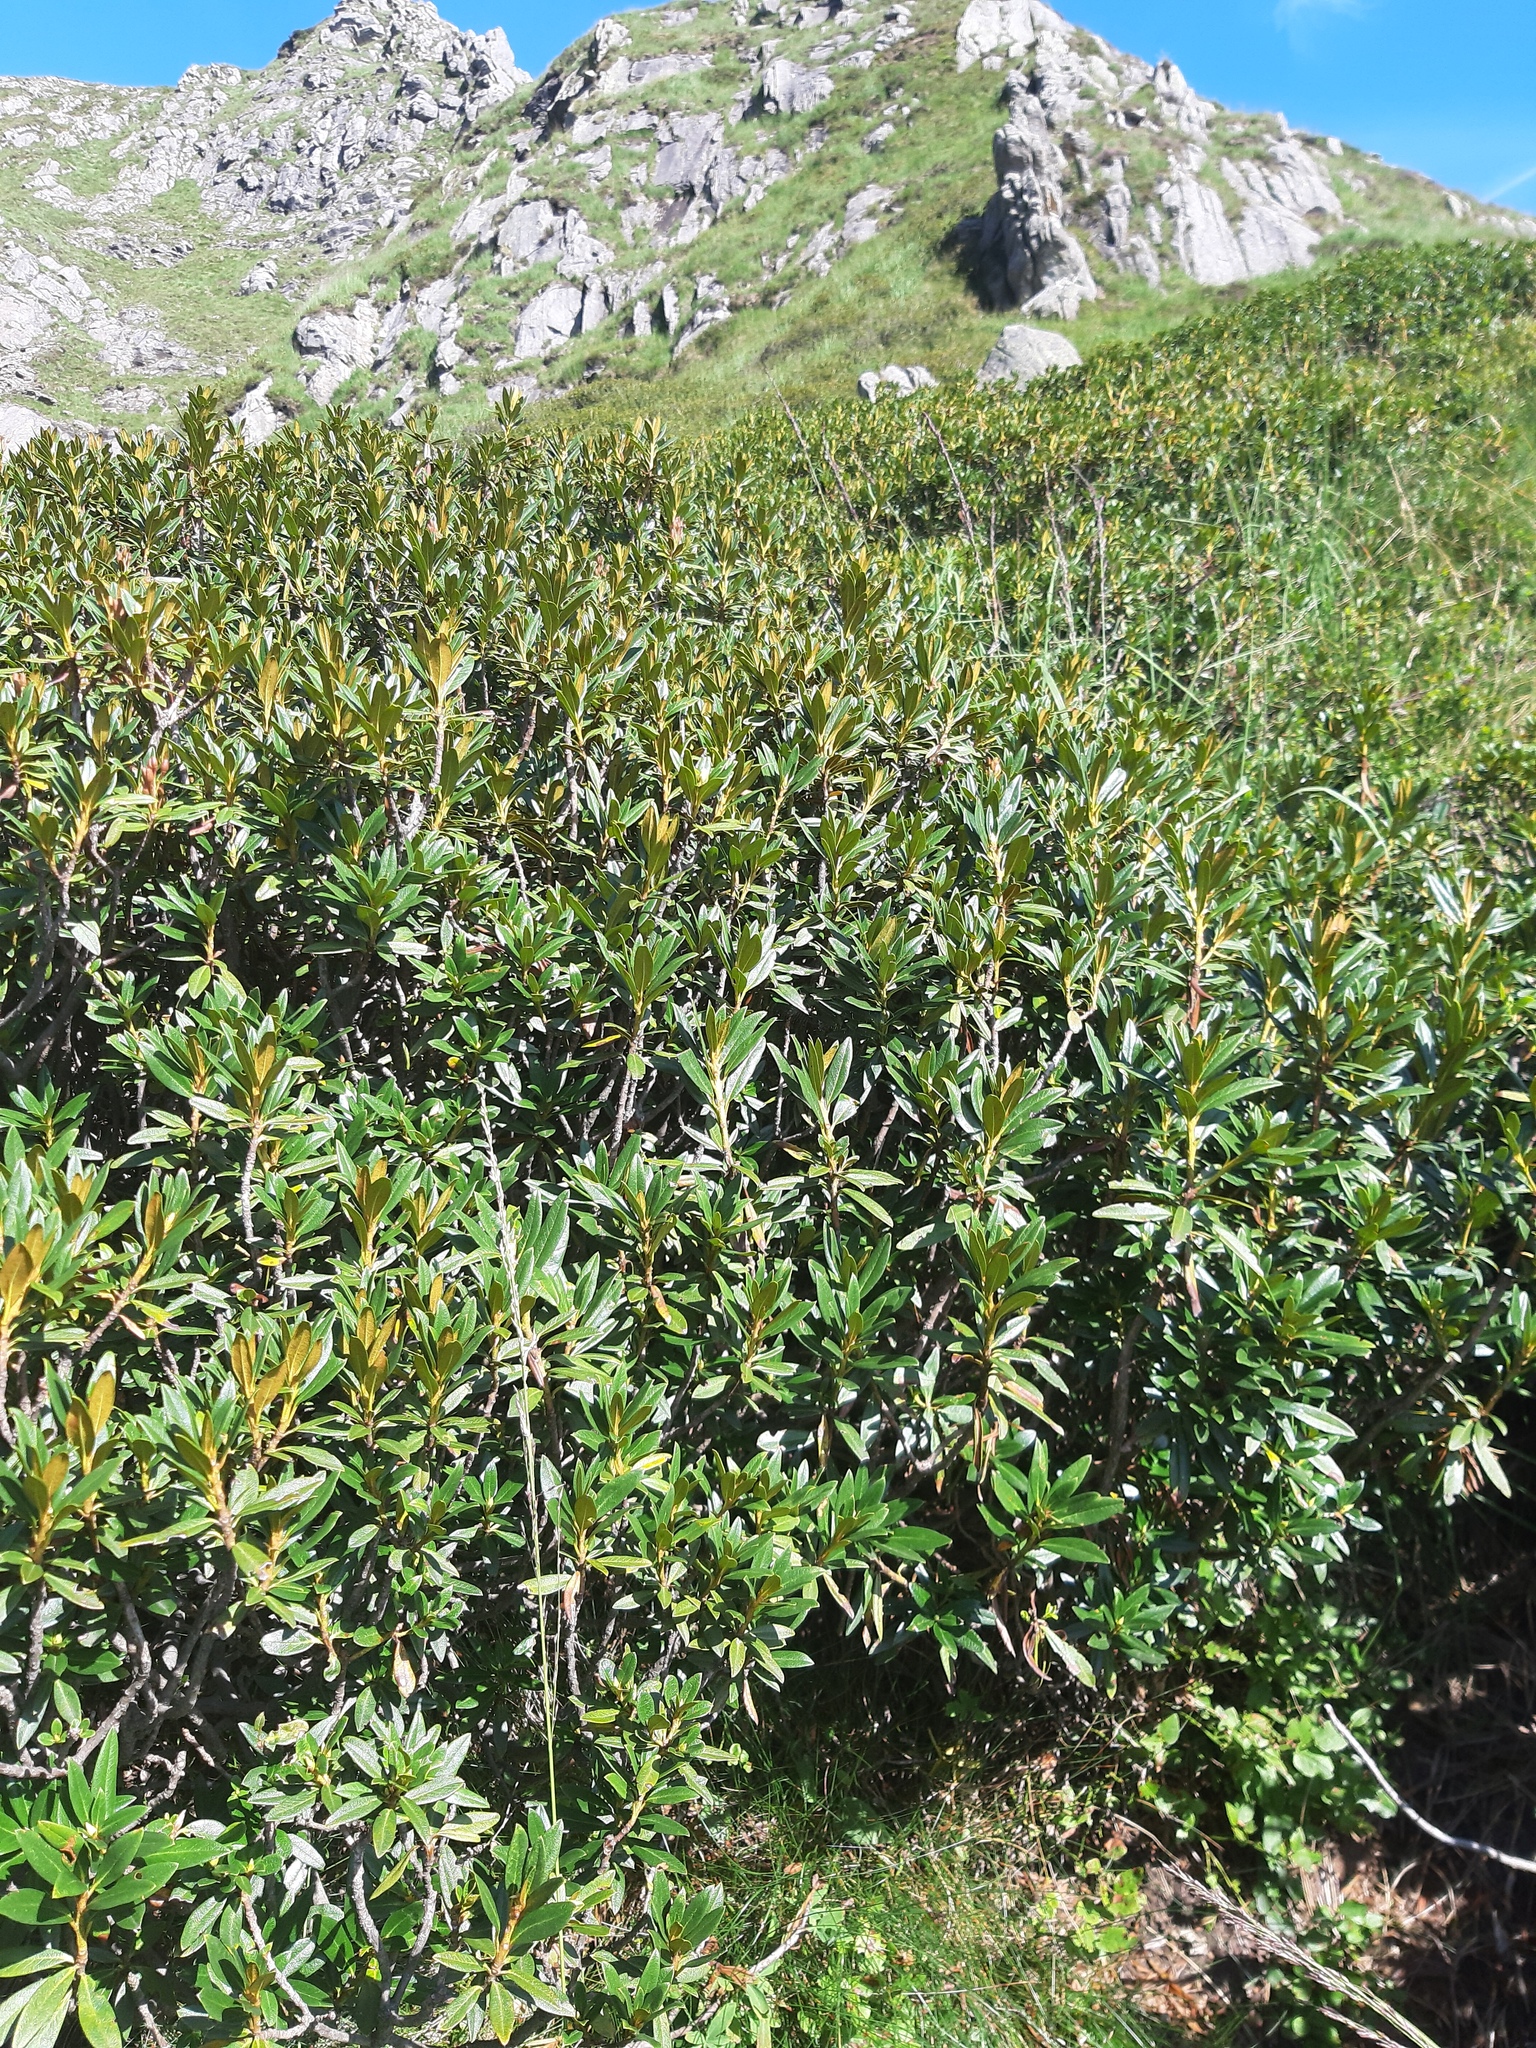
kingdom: Plantae
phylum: Tracheophyta
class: Magnoliopsida
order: Ericales
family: Ericaceae
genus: Rhododendron
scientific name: Rhododendron ferrugineum
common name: Alpenrose
